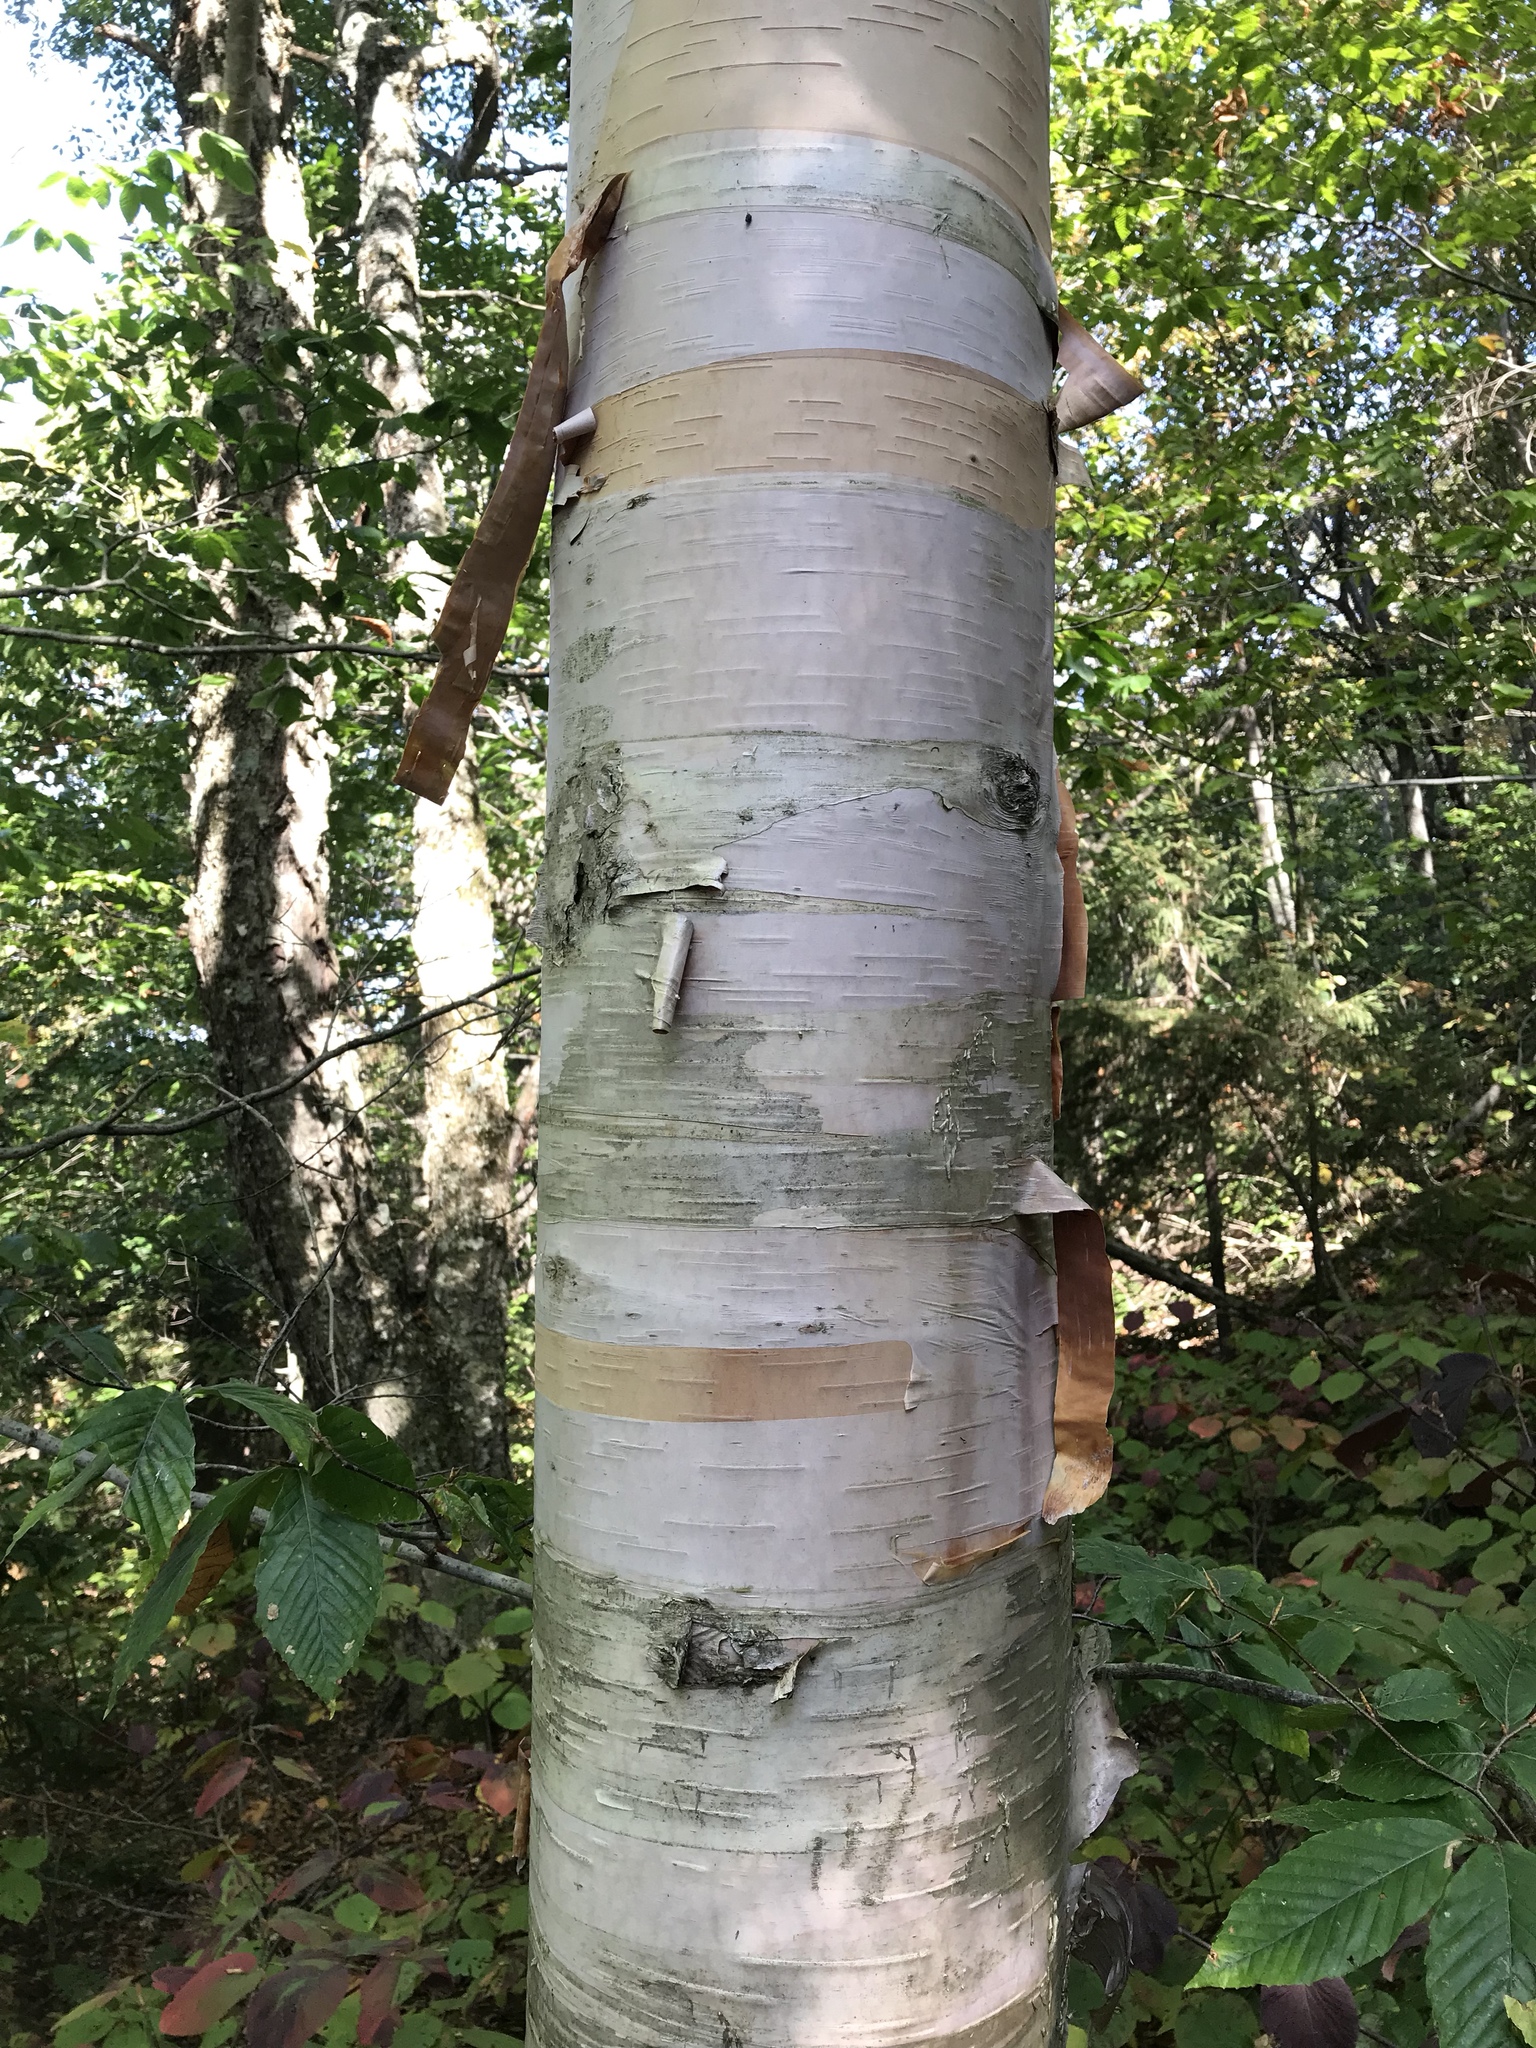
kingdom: Plantae
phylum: Tracheophyta
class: Magnoliopsida
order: Fagales
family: Betulaceae
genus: Betula
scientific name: Betula cordifolia
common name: Mountain white birch
